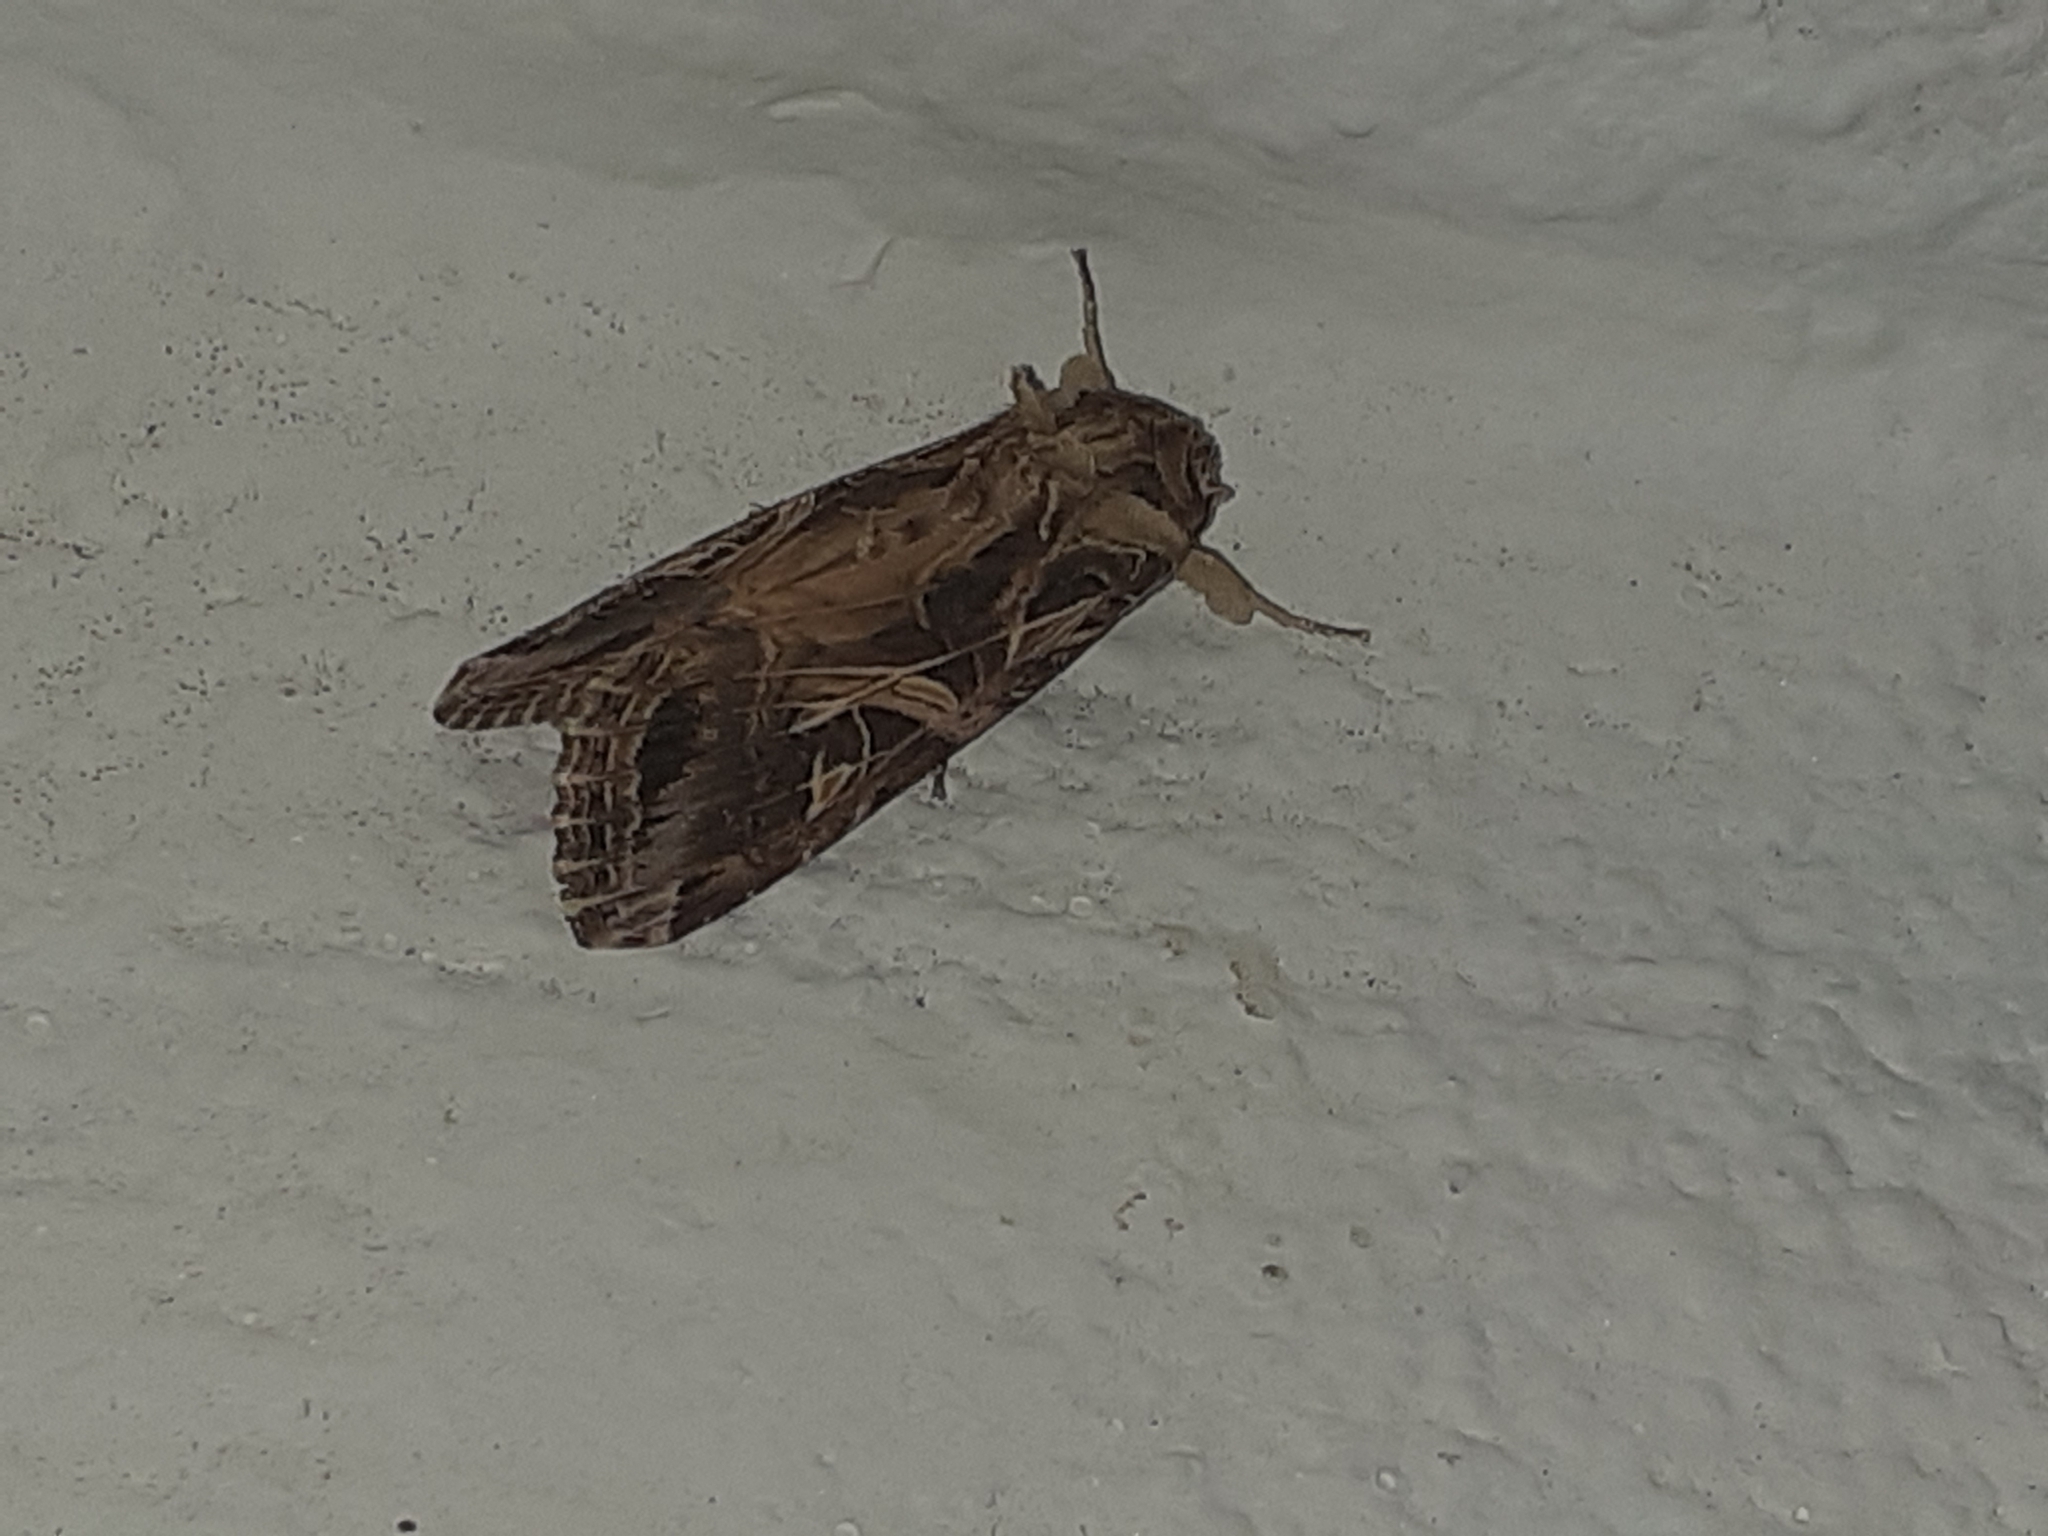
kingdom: Animalia
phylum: Arthropoda
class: Insecta
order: Lepidoptera
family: Noctuidae
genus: Spodoptera
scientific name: Spodoptera littoralis
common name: Egyptian cotton leafworm
